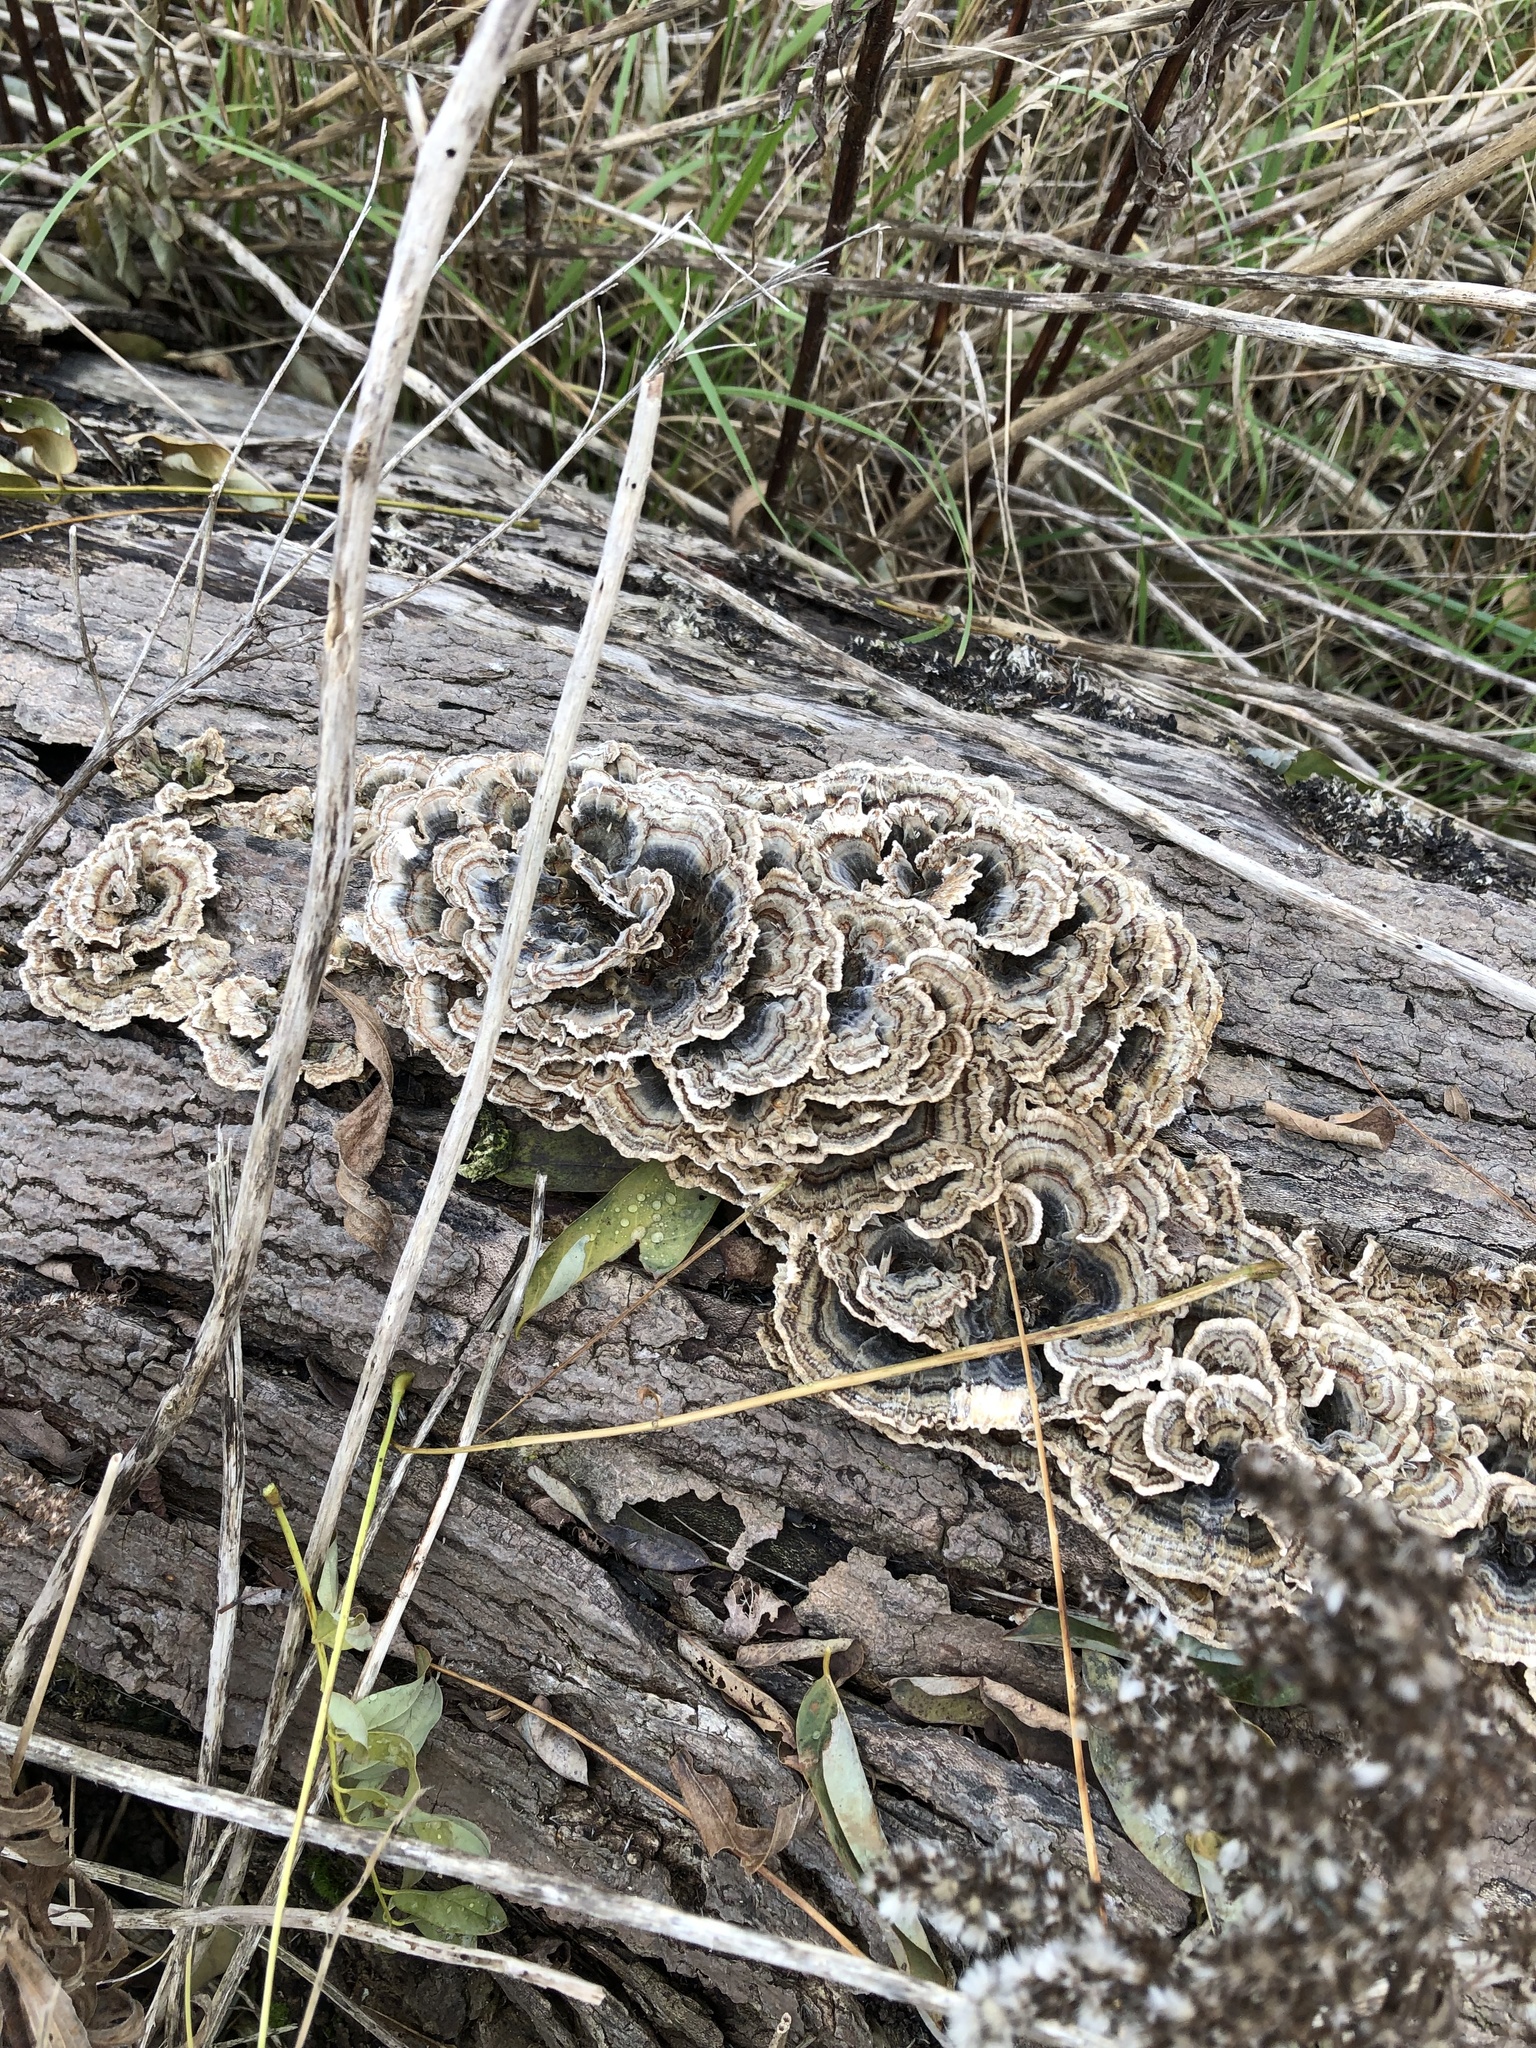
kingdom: Fungi
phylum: Basidiomycota
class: Agaricomycetes
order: Polyporales
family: Polyporaceae
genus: Trametes
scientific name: Trametes versicolor
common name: Turkeytail
